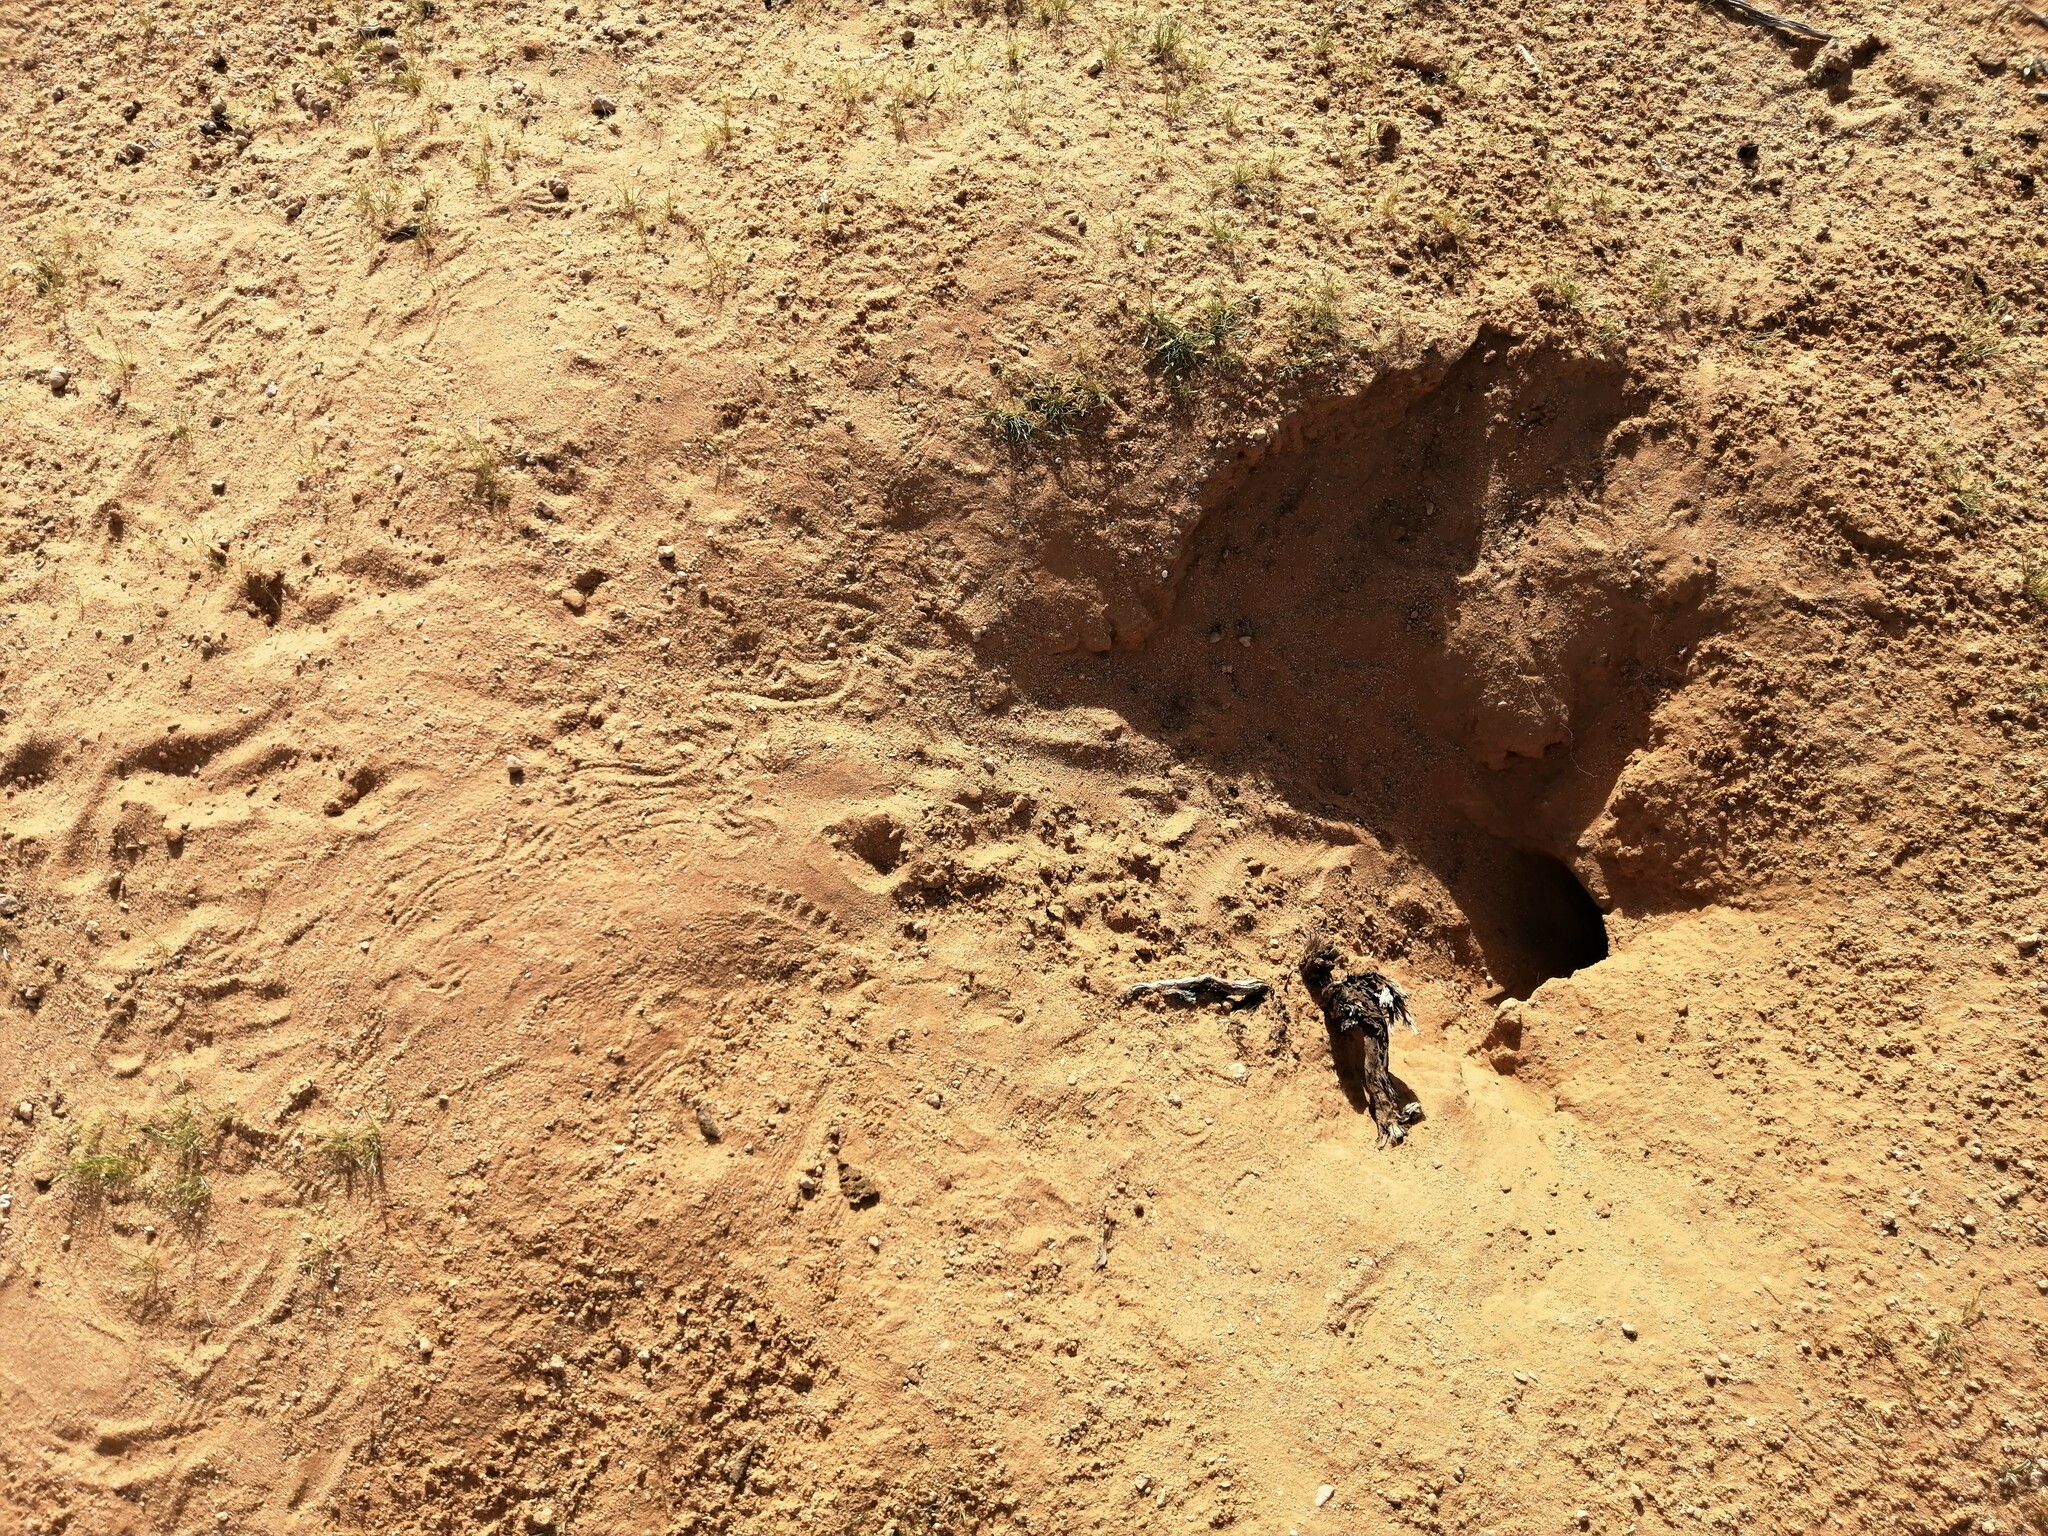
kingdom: Animalia
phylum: Chordata
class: Squamata
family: Agamidae
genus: Uromastyx
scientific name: Uromastyx aegyptia
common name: Egyptian mastigure
